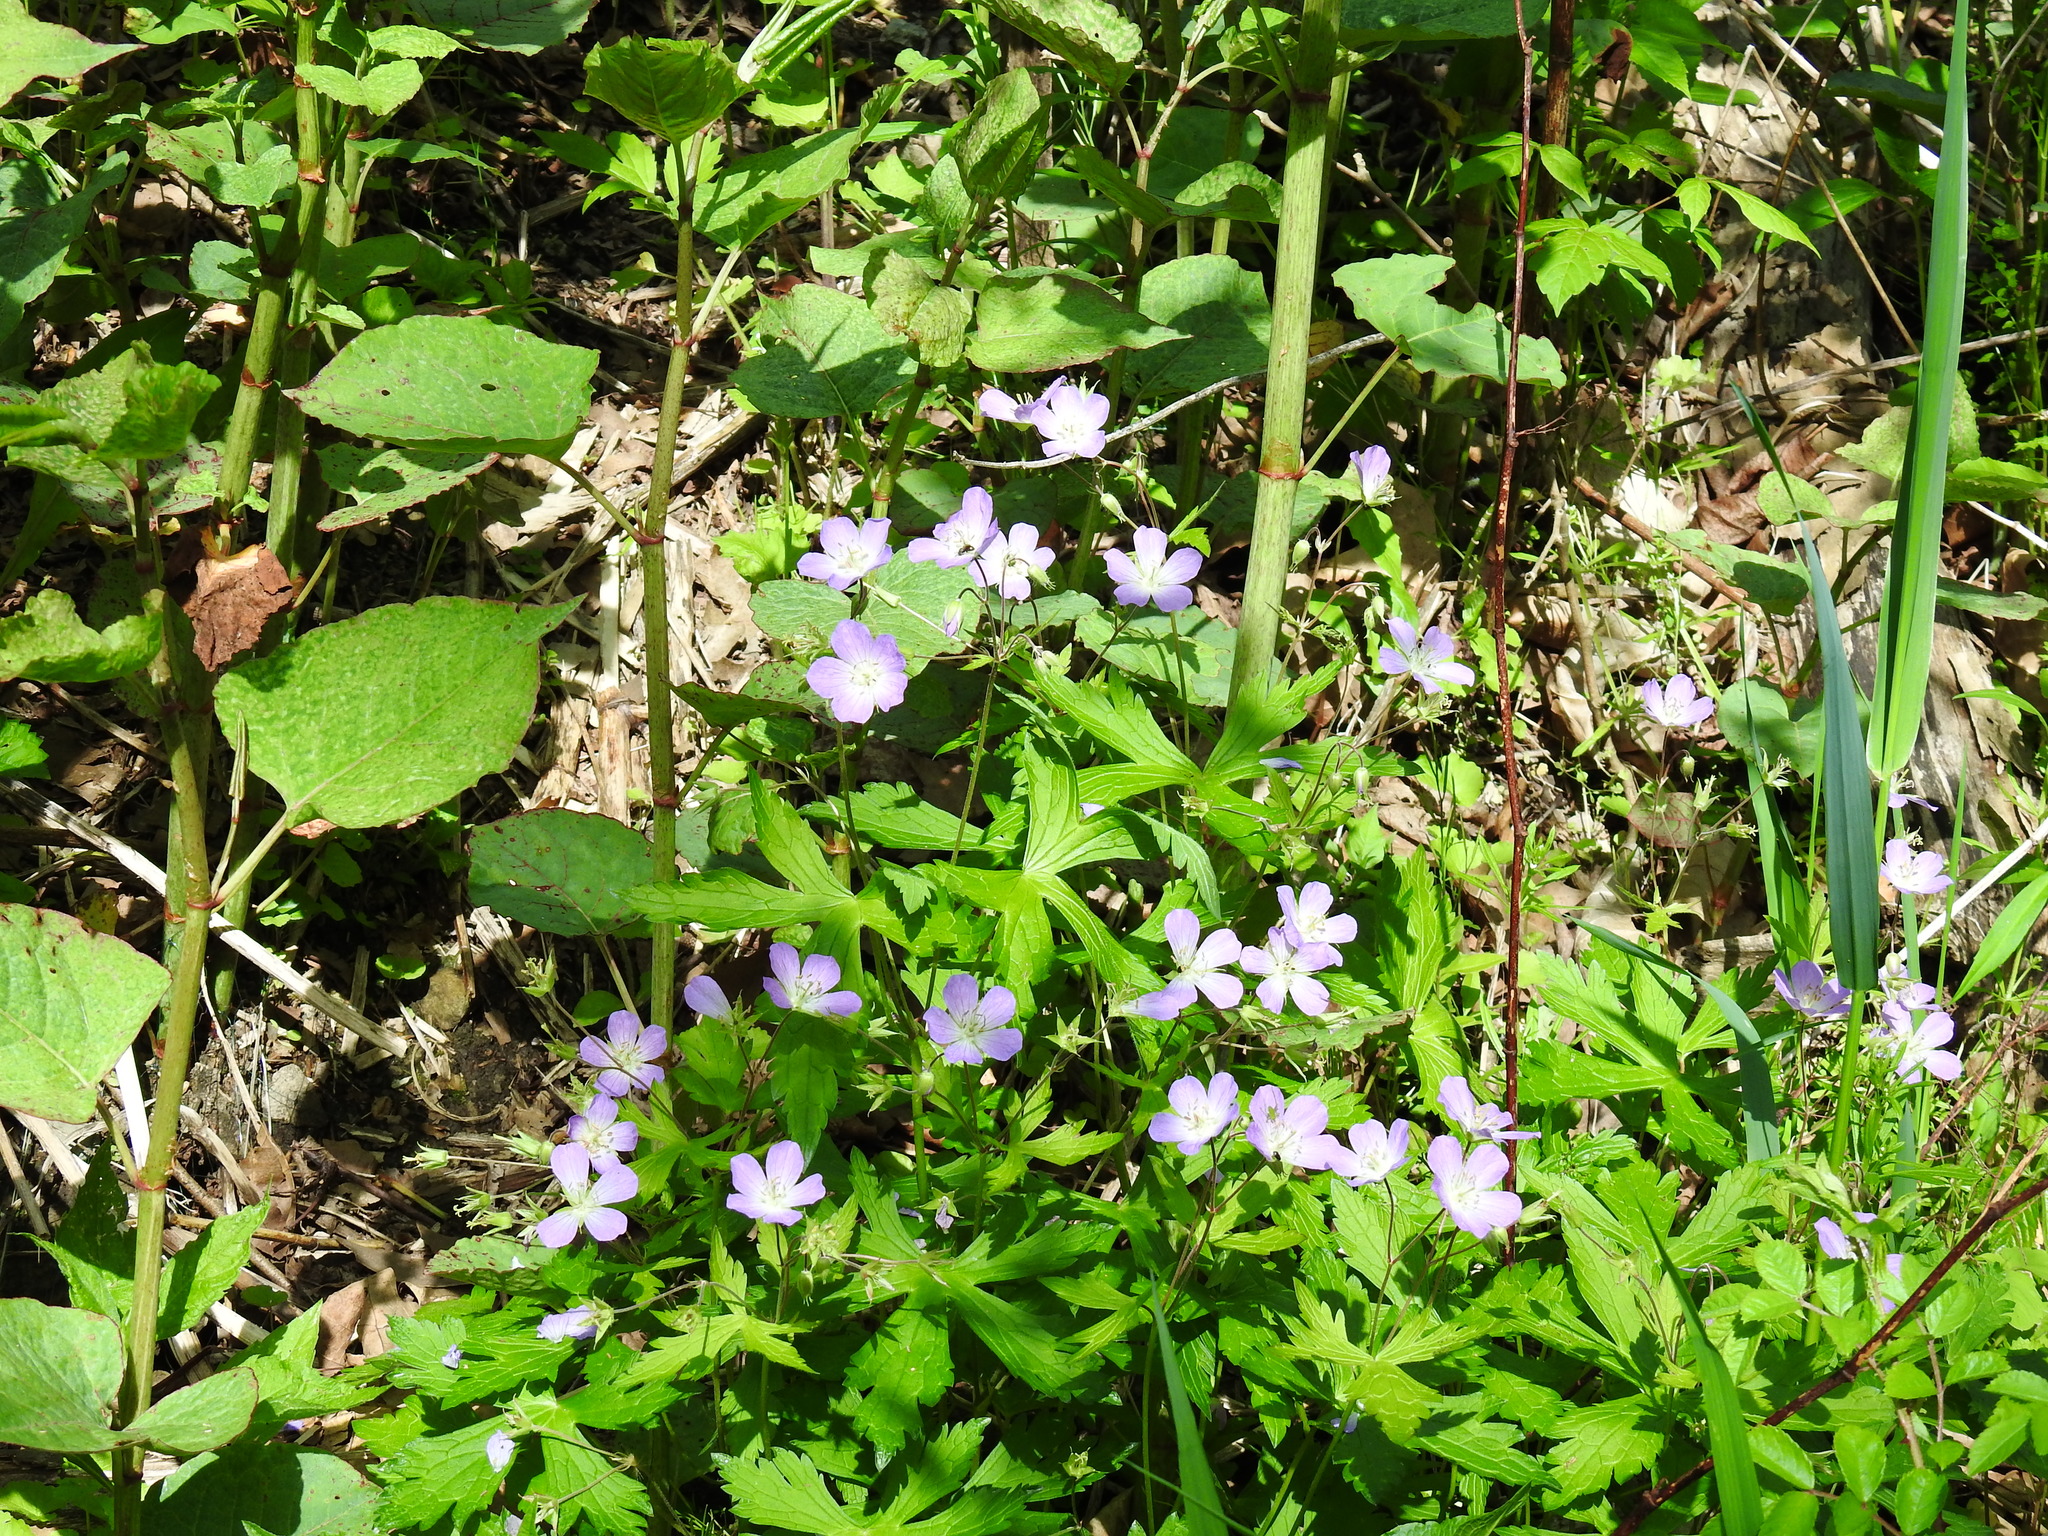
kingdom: Plantae
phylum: Tracheophyta
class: Magnoliopsida
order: Geraniales
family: Geraniaceae
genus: Geranium
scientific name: Geranium maculatum
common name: Spotted geranium
